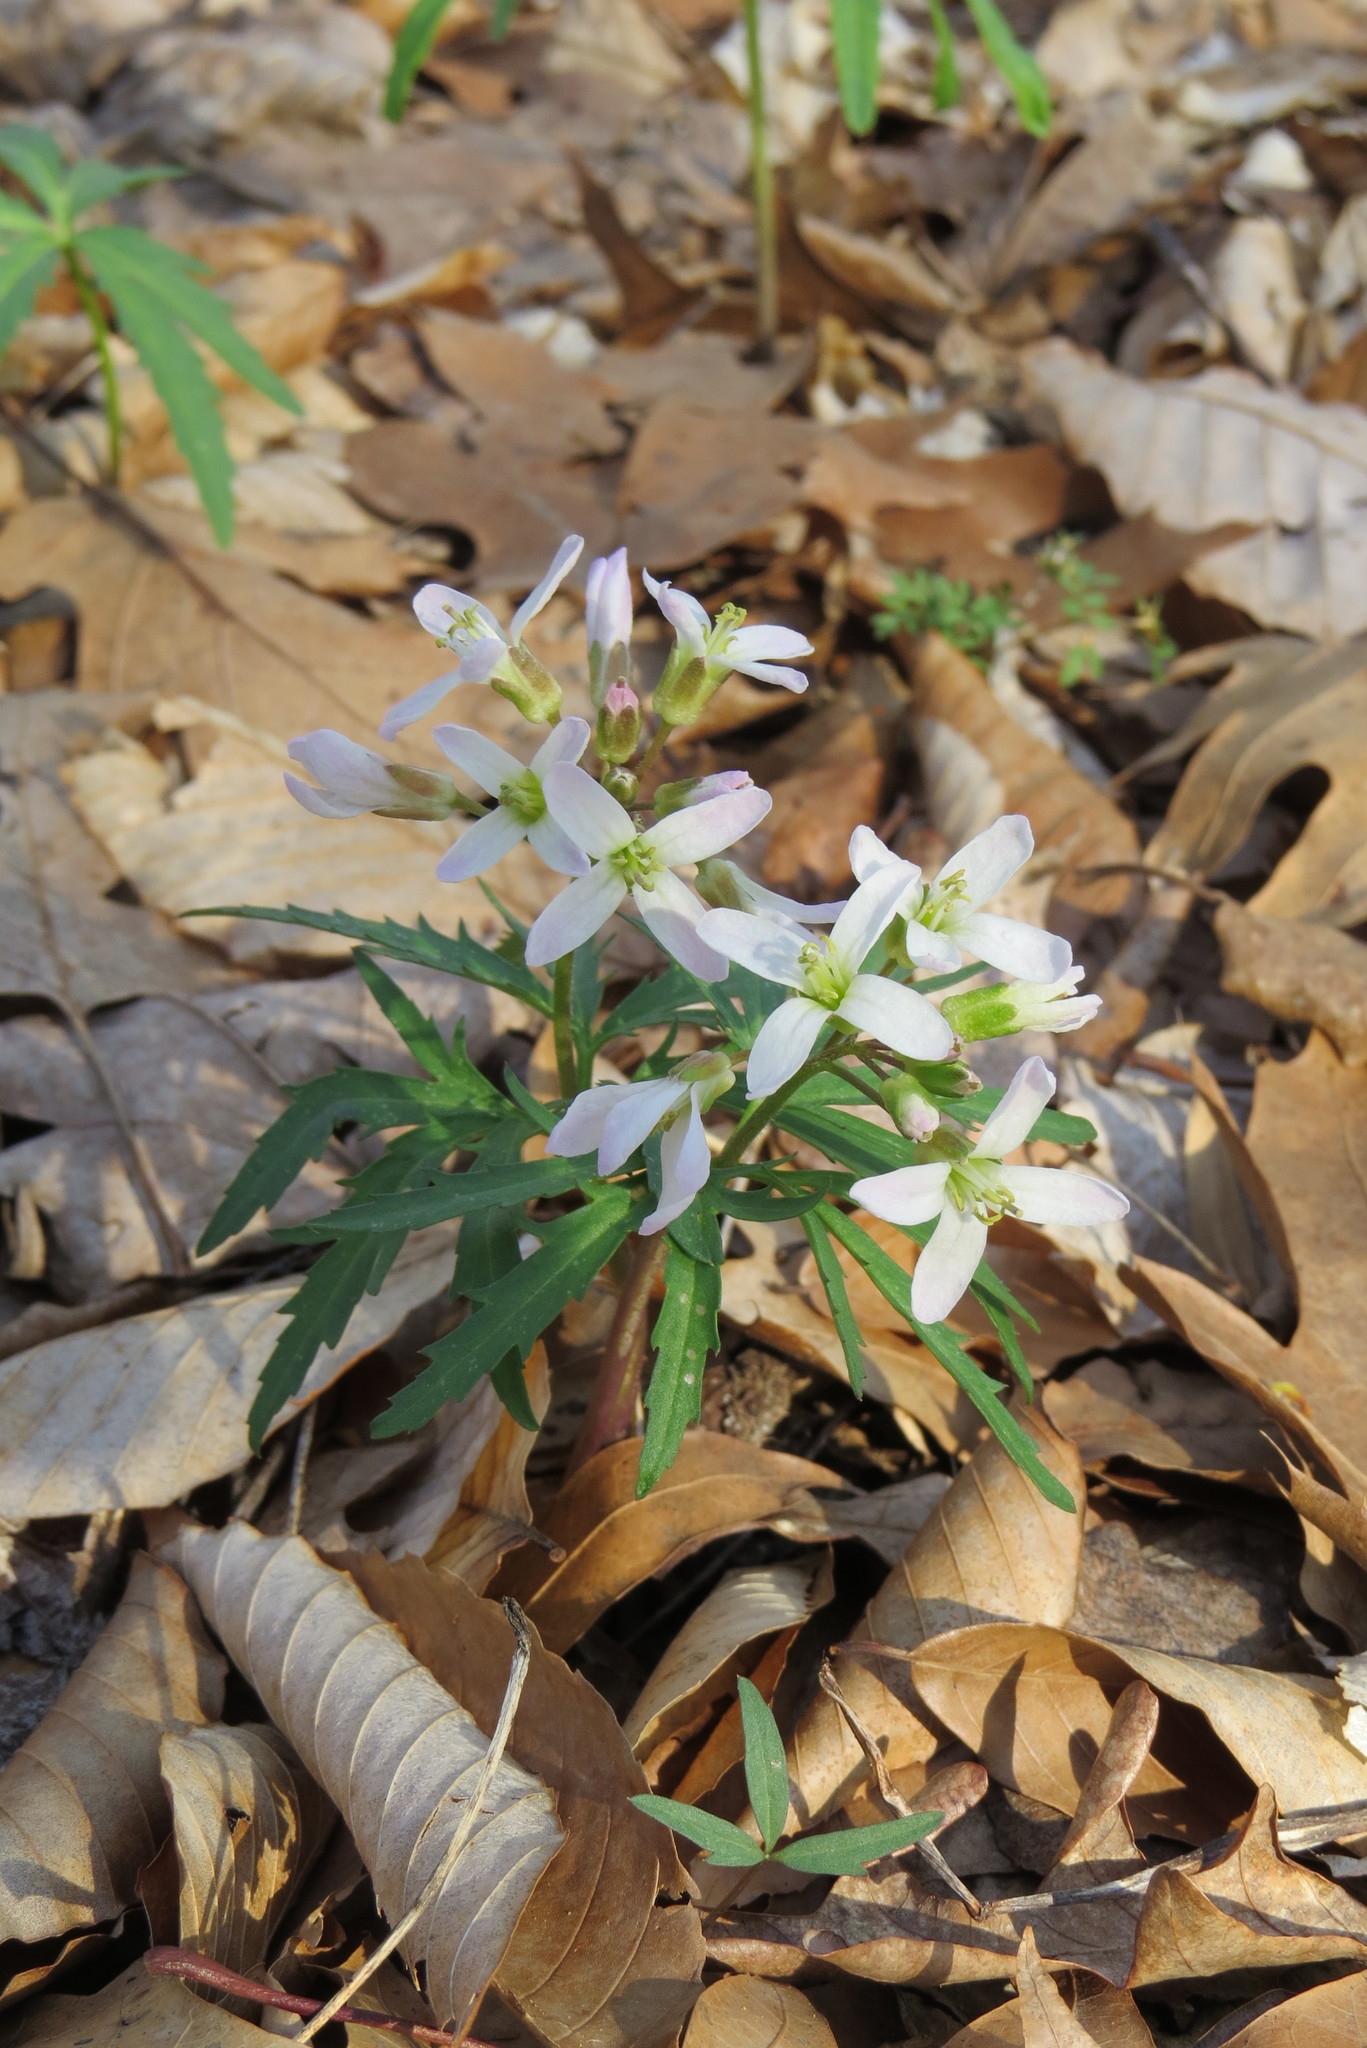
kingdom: Plantae
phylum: Tracheophyta
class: Magnoliopsida
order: Brassicales
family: Brassicaceae
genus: Cardamine
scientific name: Cardamine concatenata
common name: Cut-leaf toothcup
